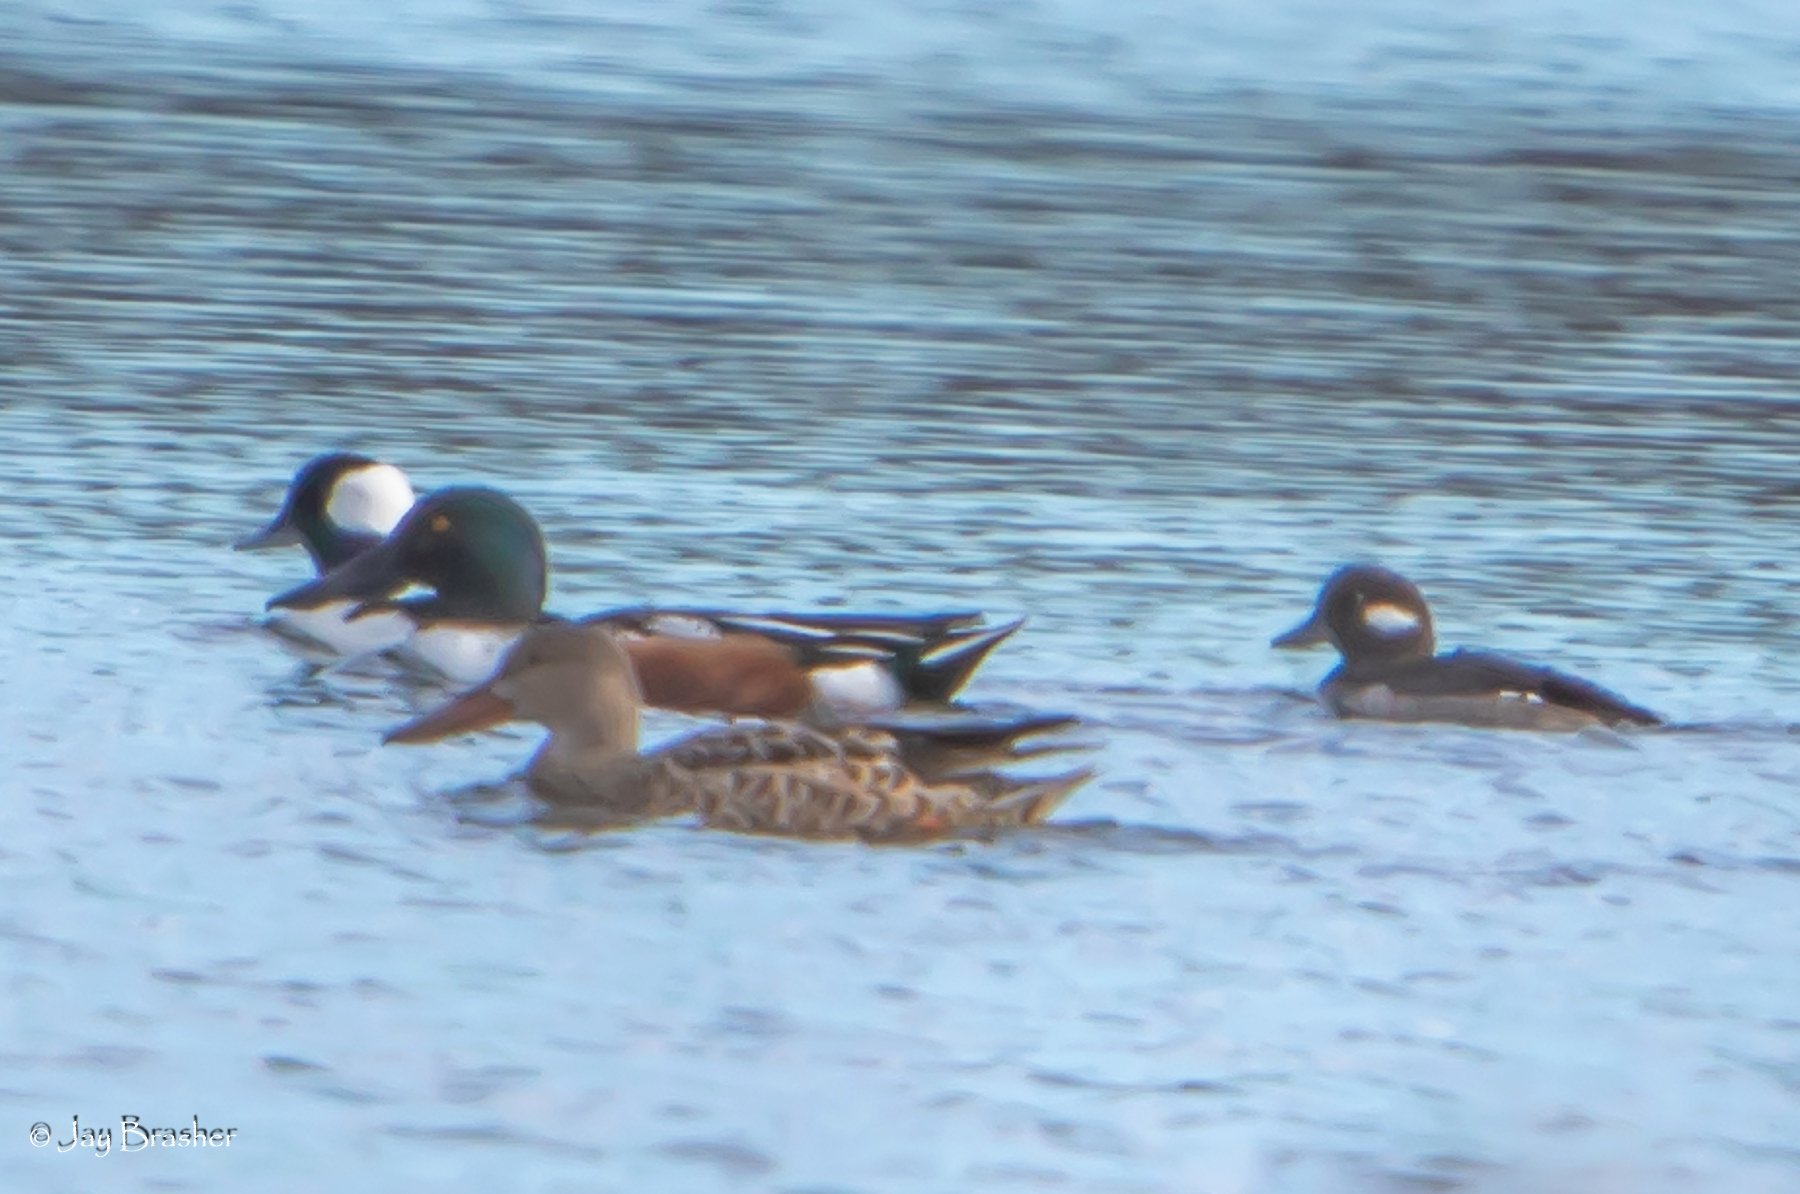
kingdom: Animalia
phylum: Chordata
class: Aves
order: Anseriformes
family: Anatidae
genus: Spatula
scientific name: Spatula clypeata
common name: Northern shoveler
